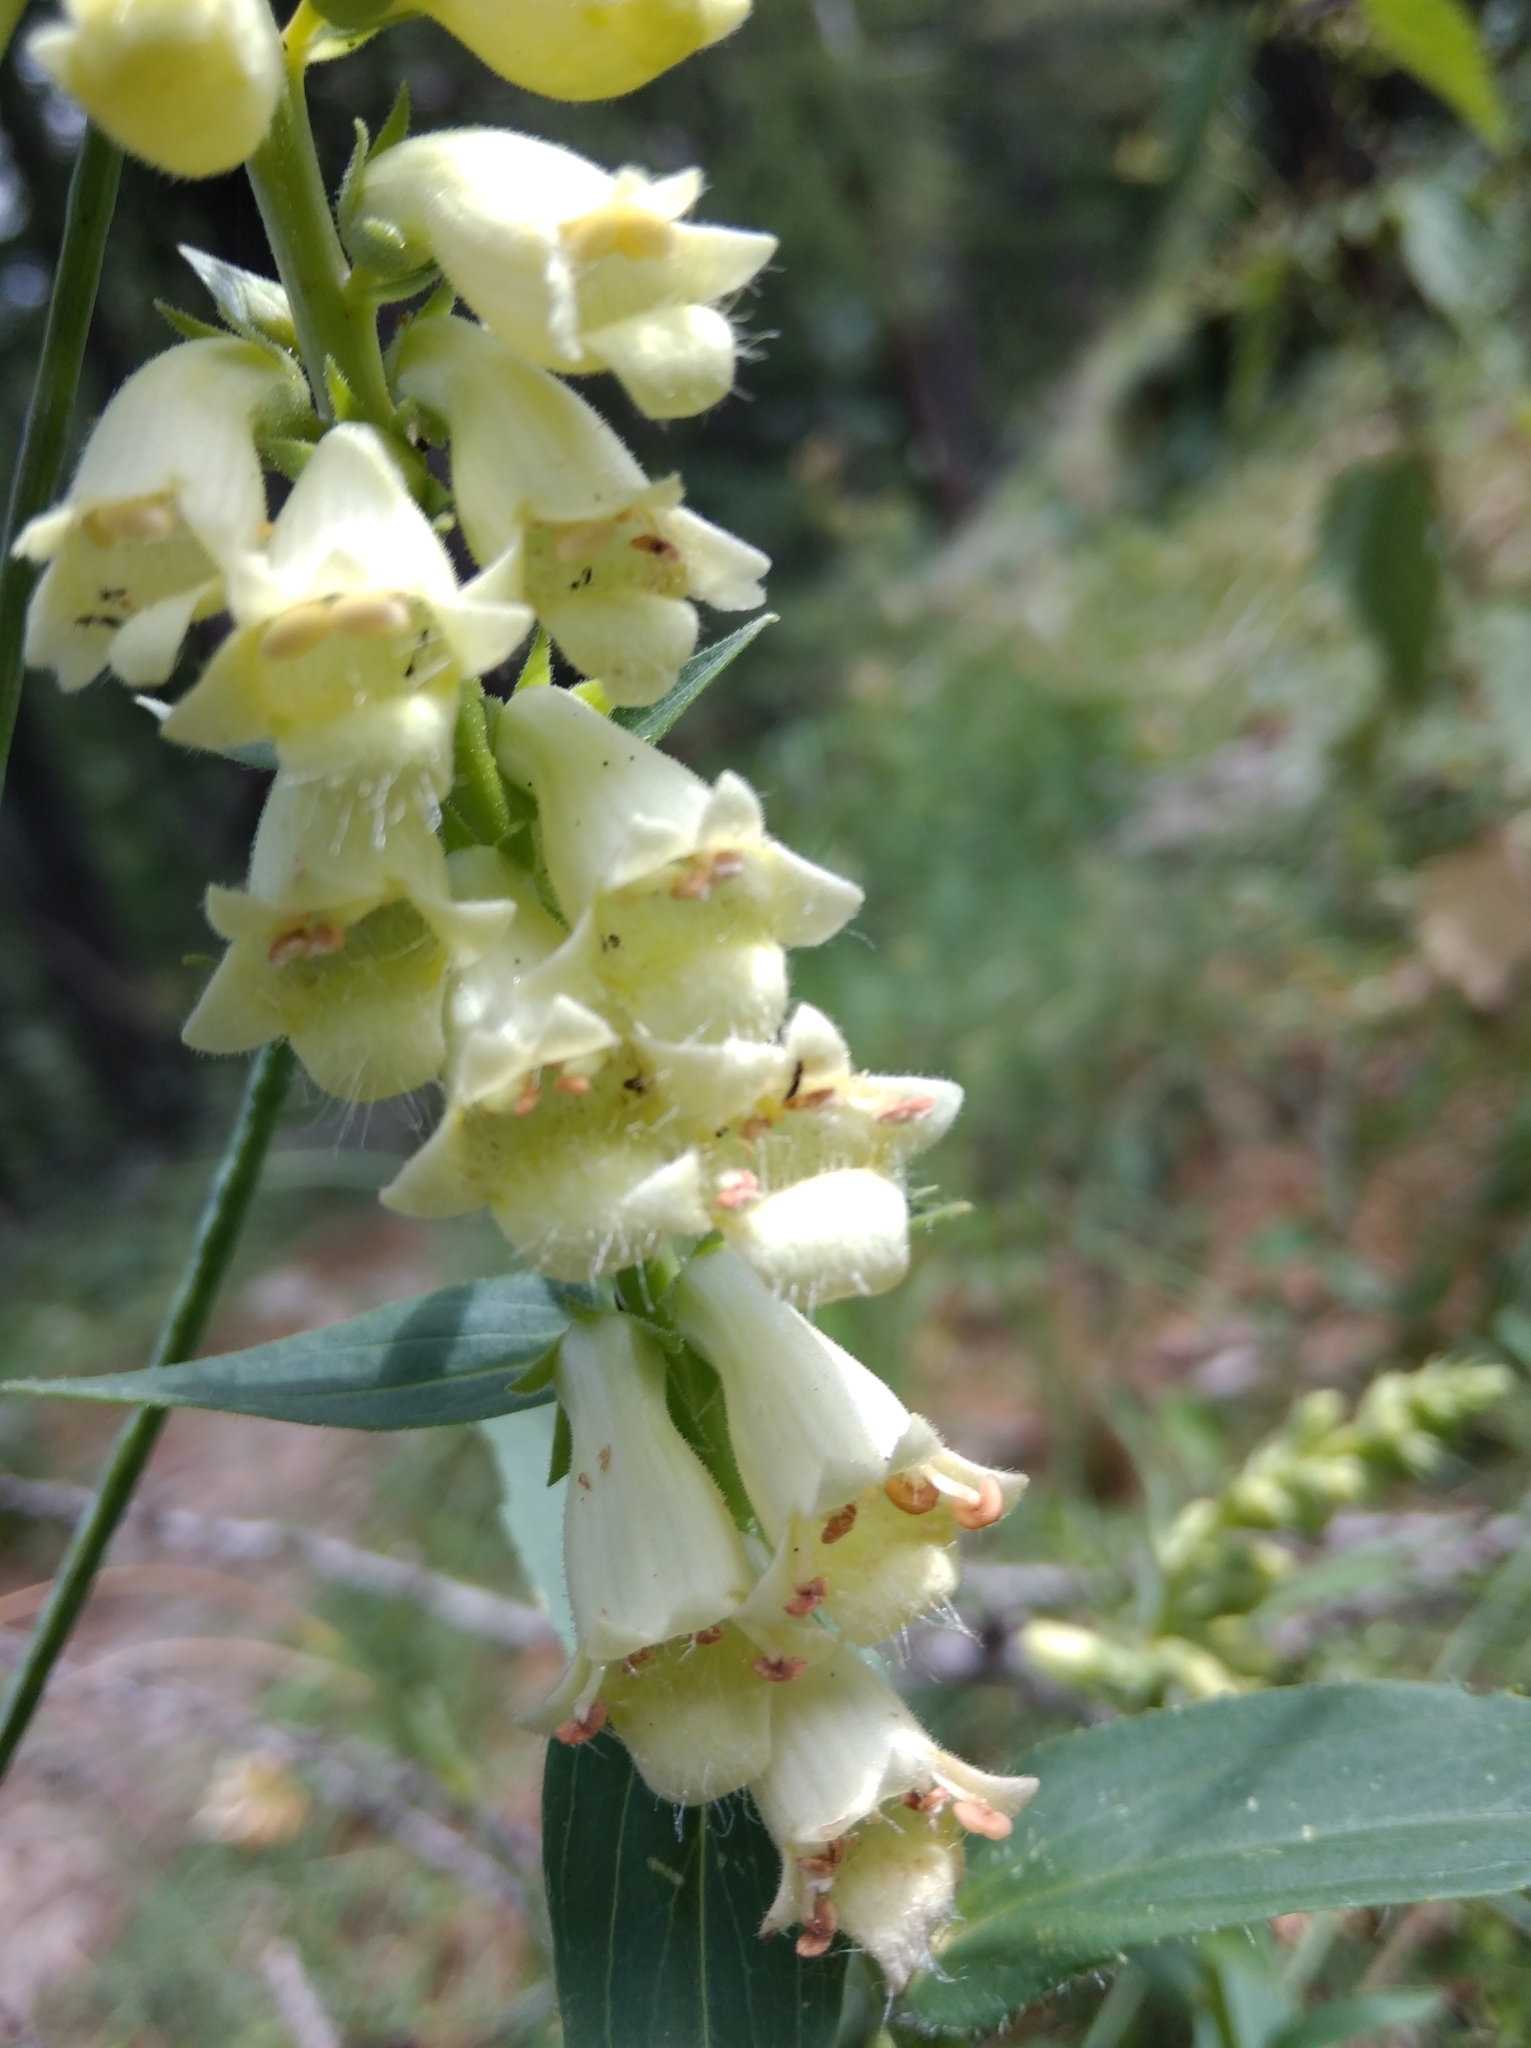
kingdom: Plantae
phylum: Tracheophyta
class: Magnoliopsida
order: Lamiales
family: Plantaginaceae
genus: Digitalis
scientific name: Digitalis lutea
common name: Straw foxglove
